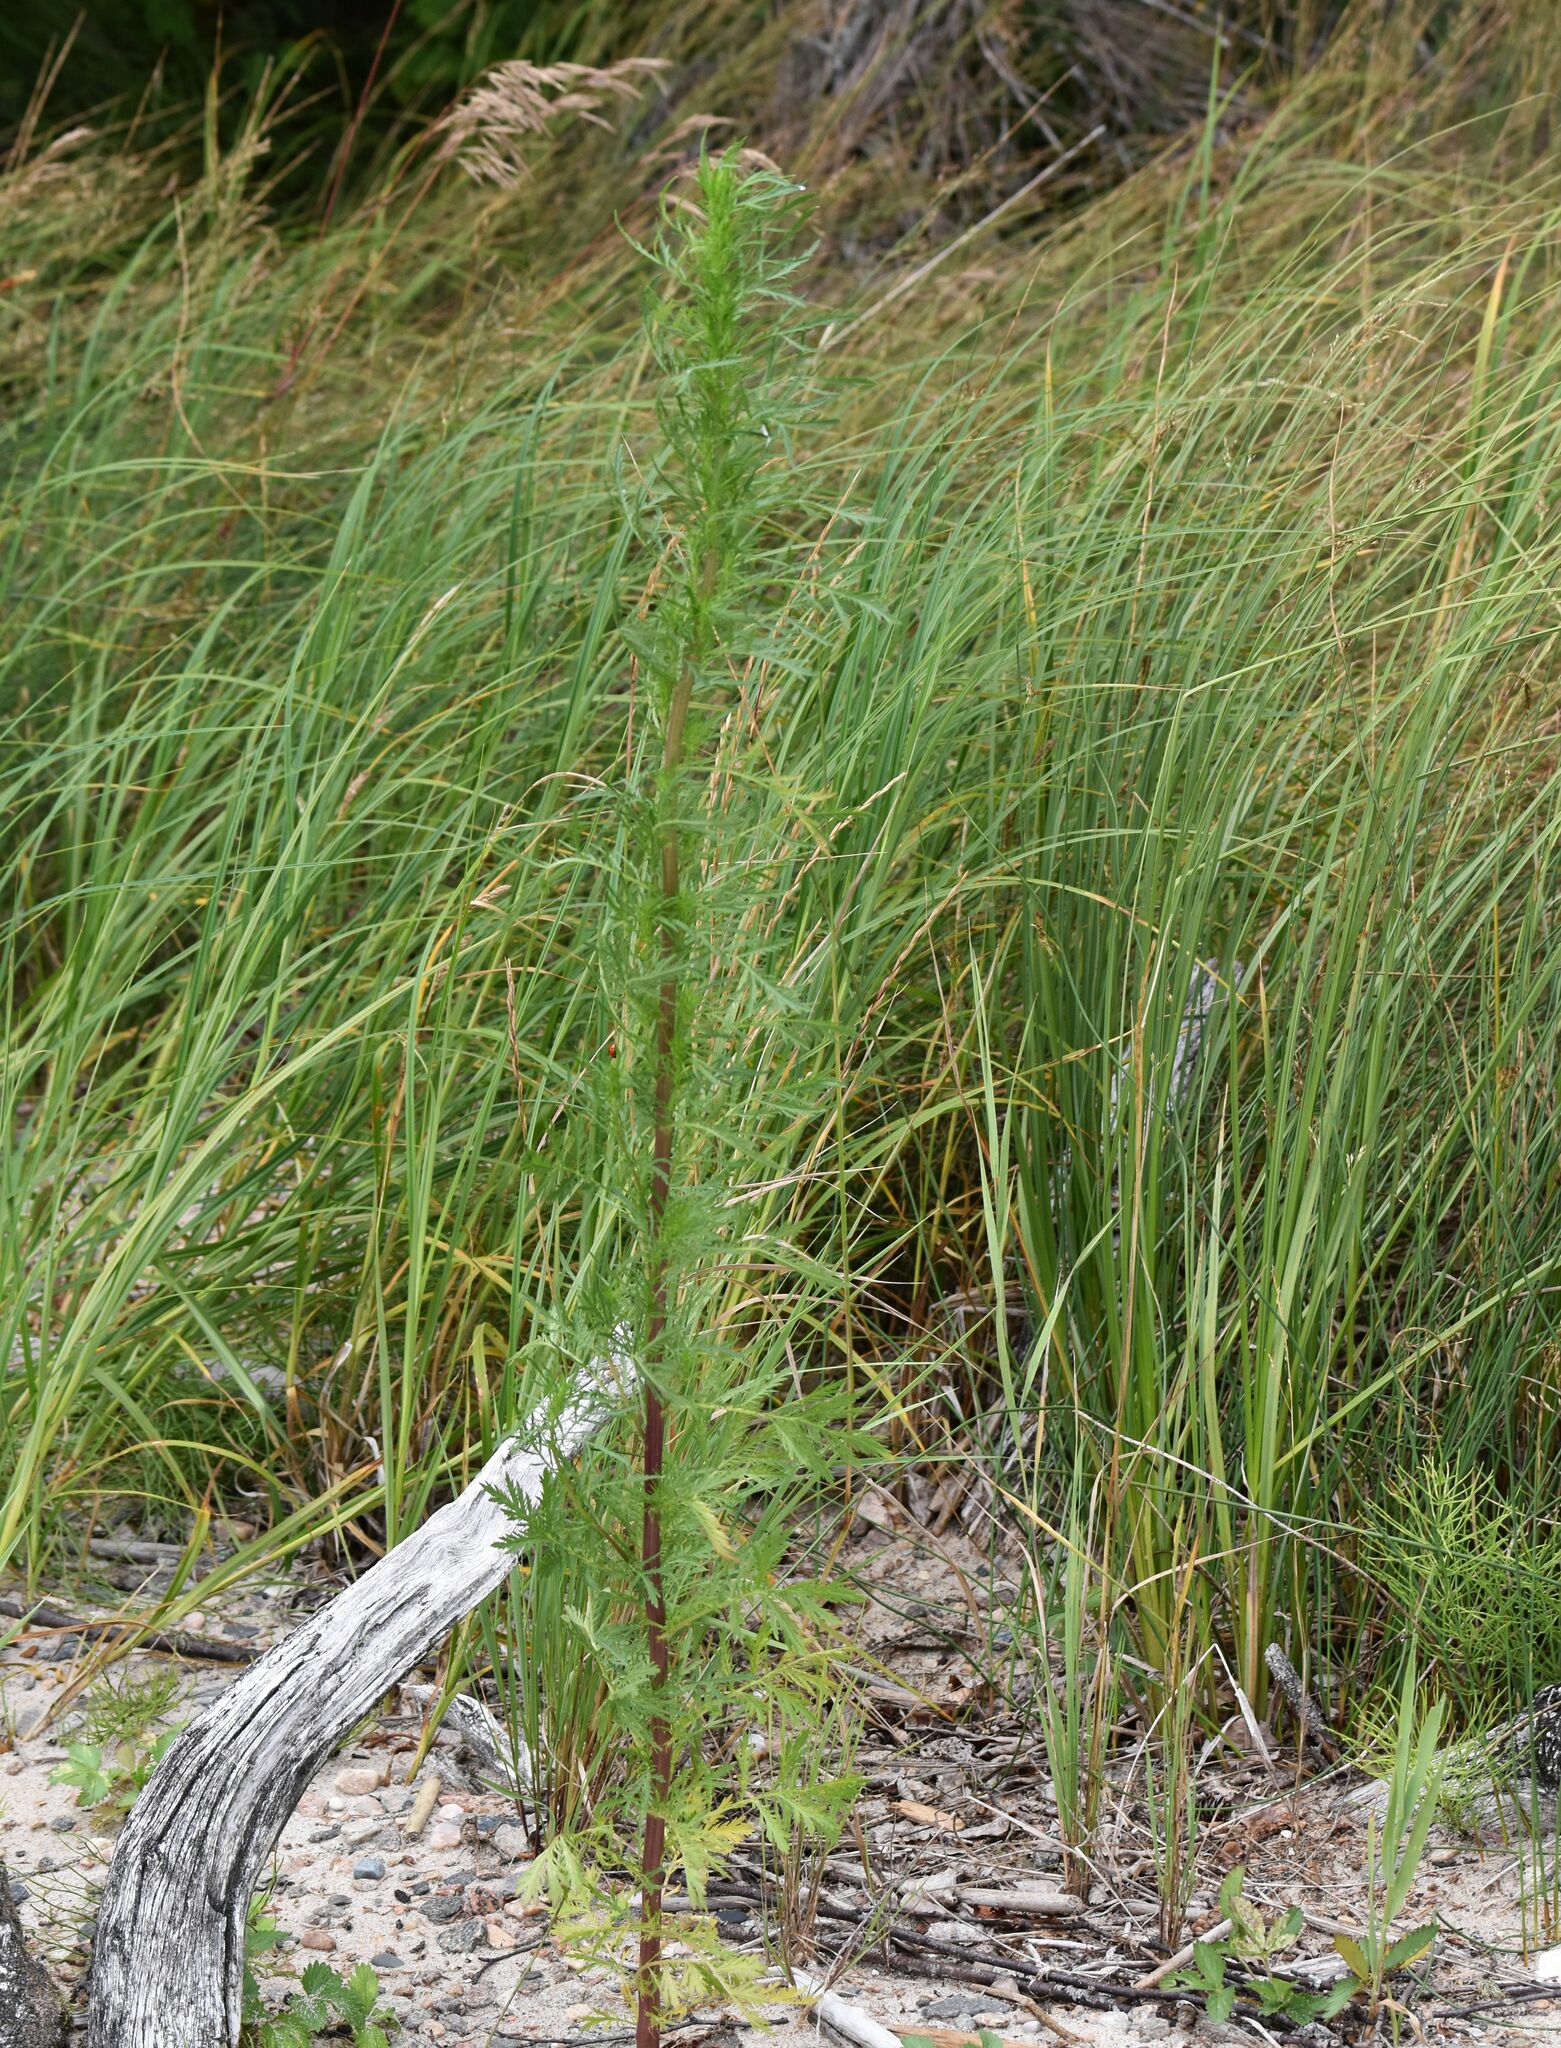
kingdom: Plantae
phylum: Tracheophyta
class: Magnoliopsida
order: Asterales
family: Asteraceae
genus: Artemisia
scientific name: Artemisia biennis
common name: Biennial wormwood
